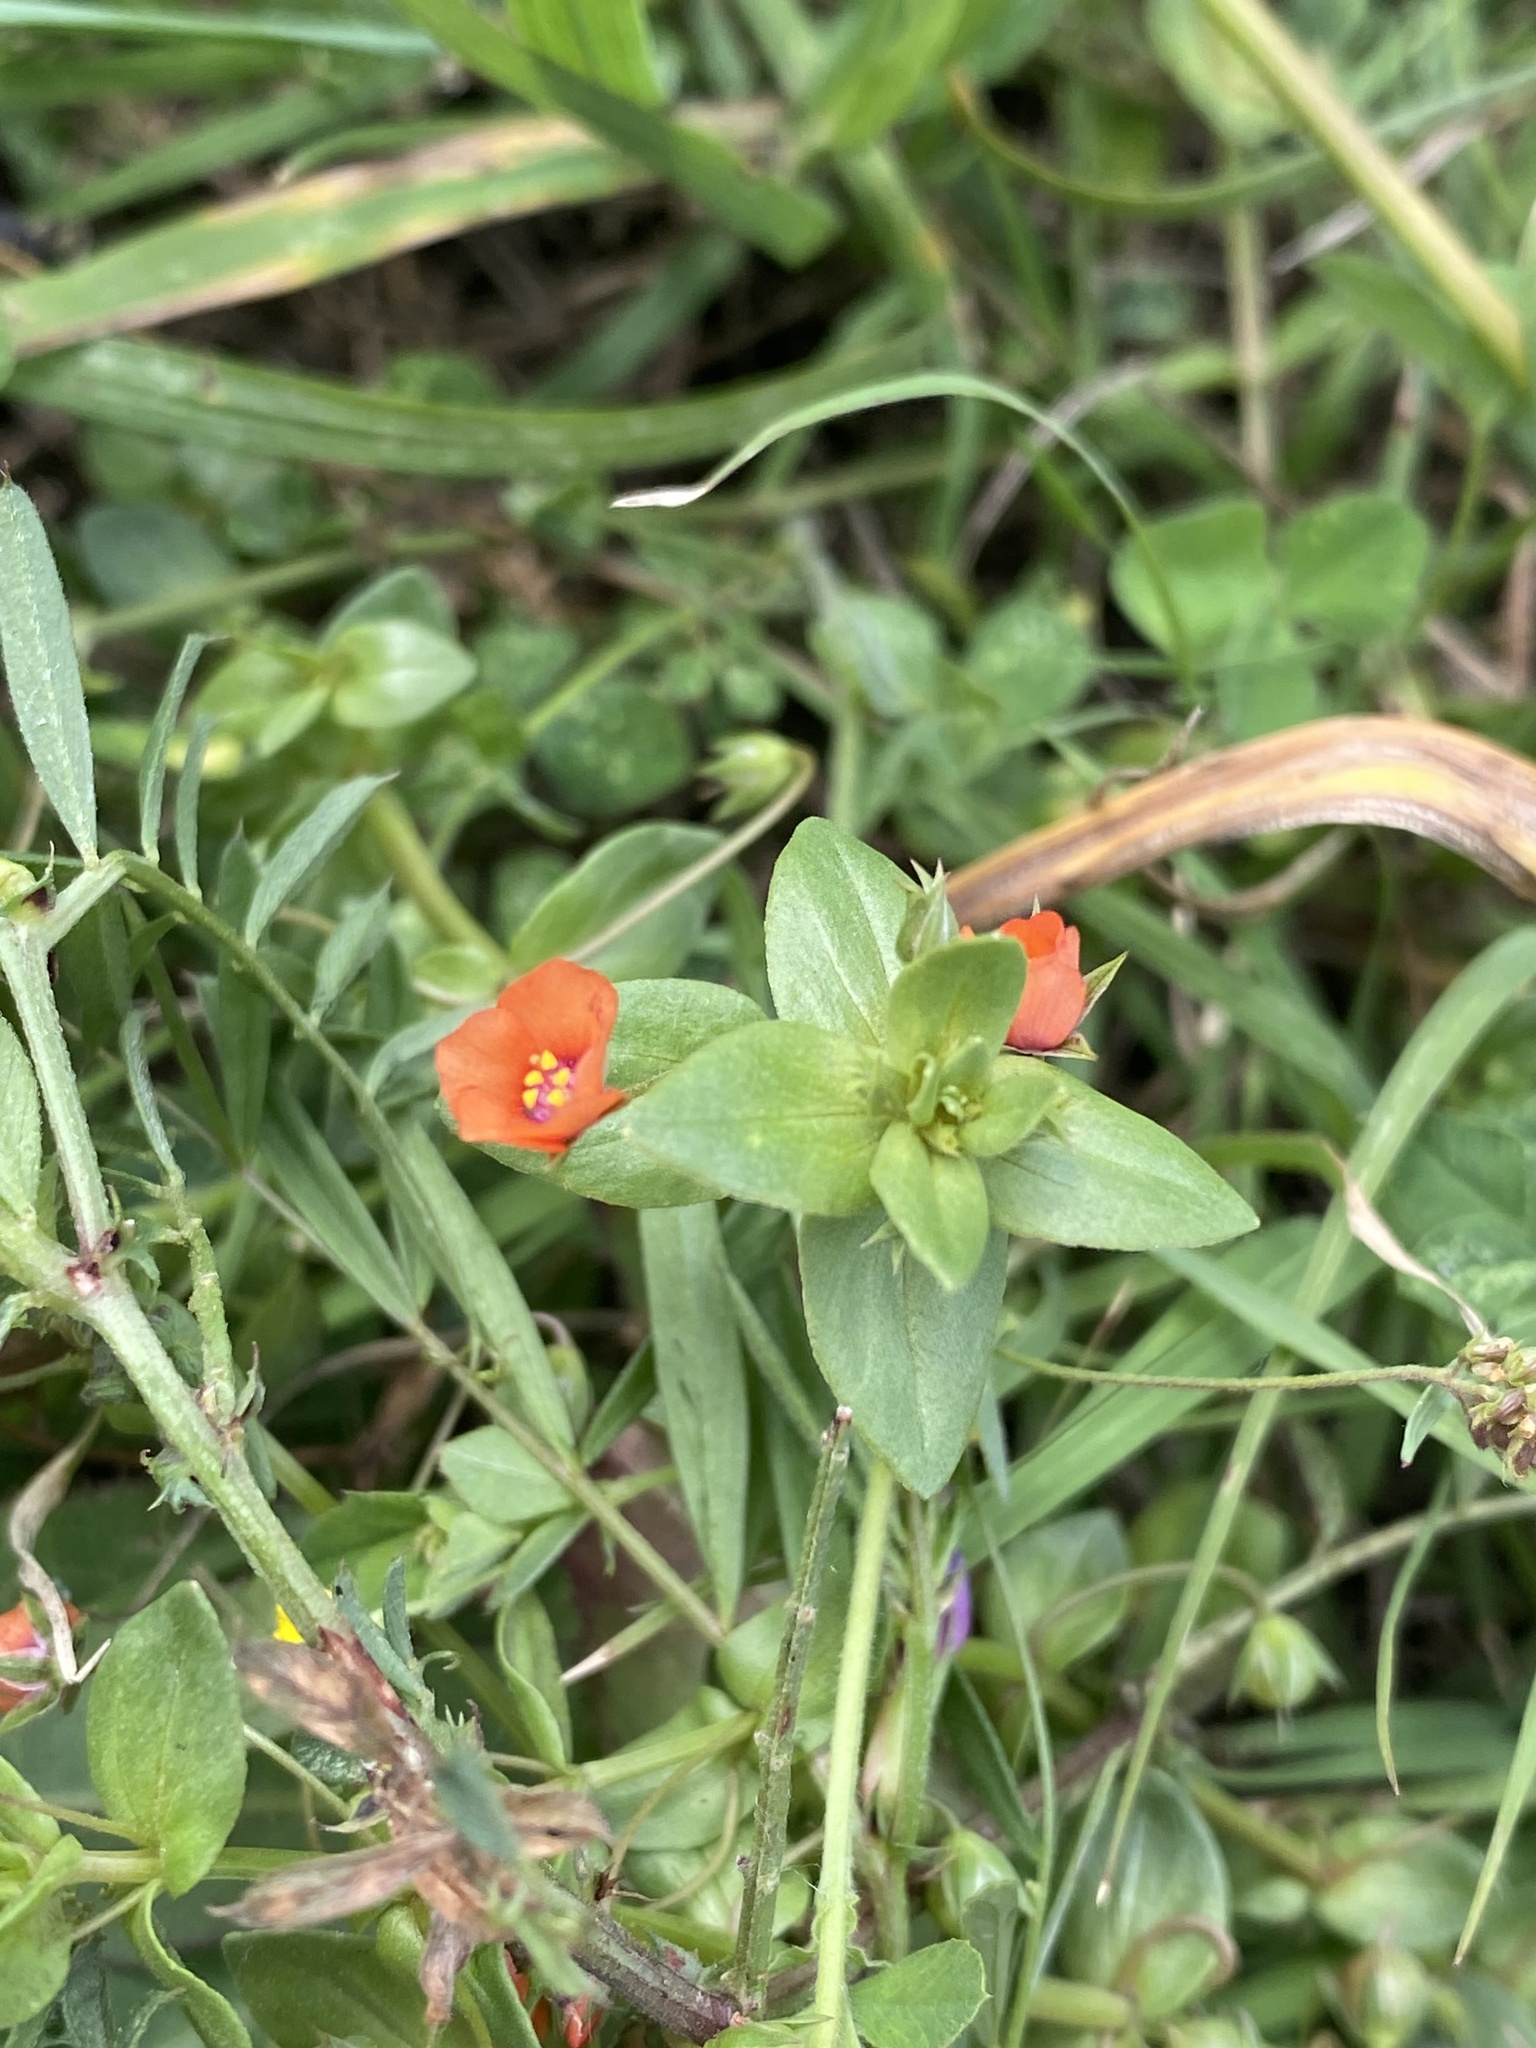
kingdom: Plantae
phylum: Tracheophyta
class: Magnoliopsida
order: Ericales
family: Primulaceae
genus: Lysimachia
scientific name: Lysimachia arvensis
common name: Scarlet pimpernel
